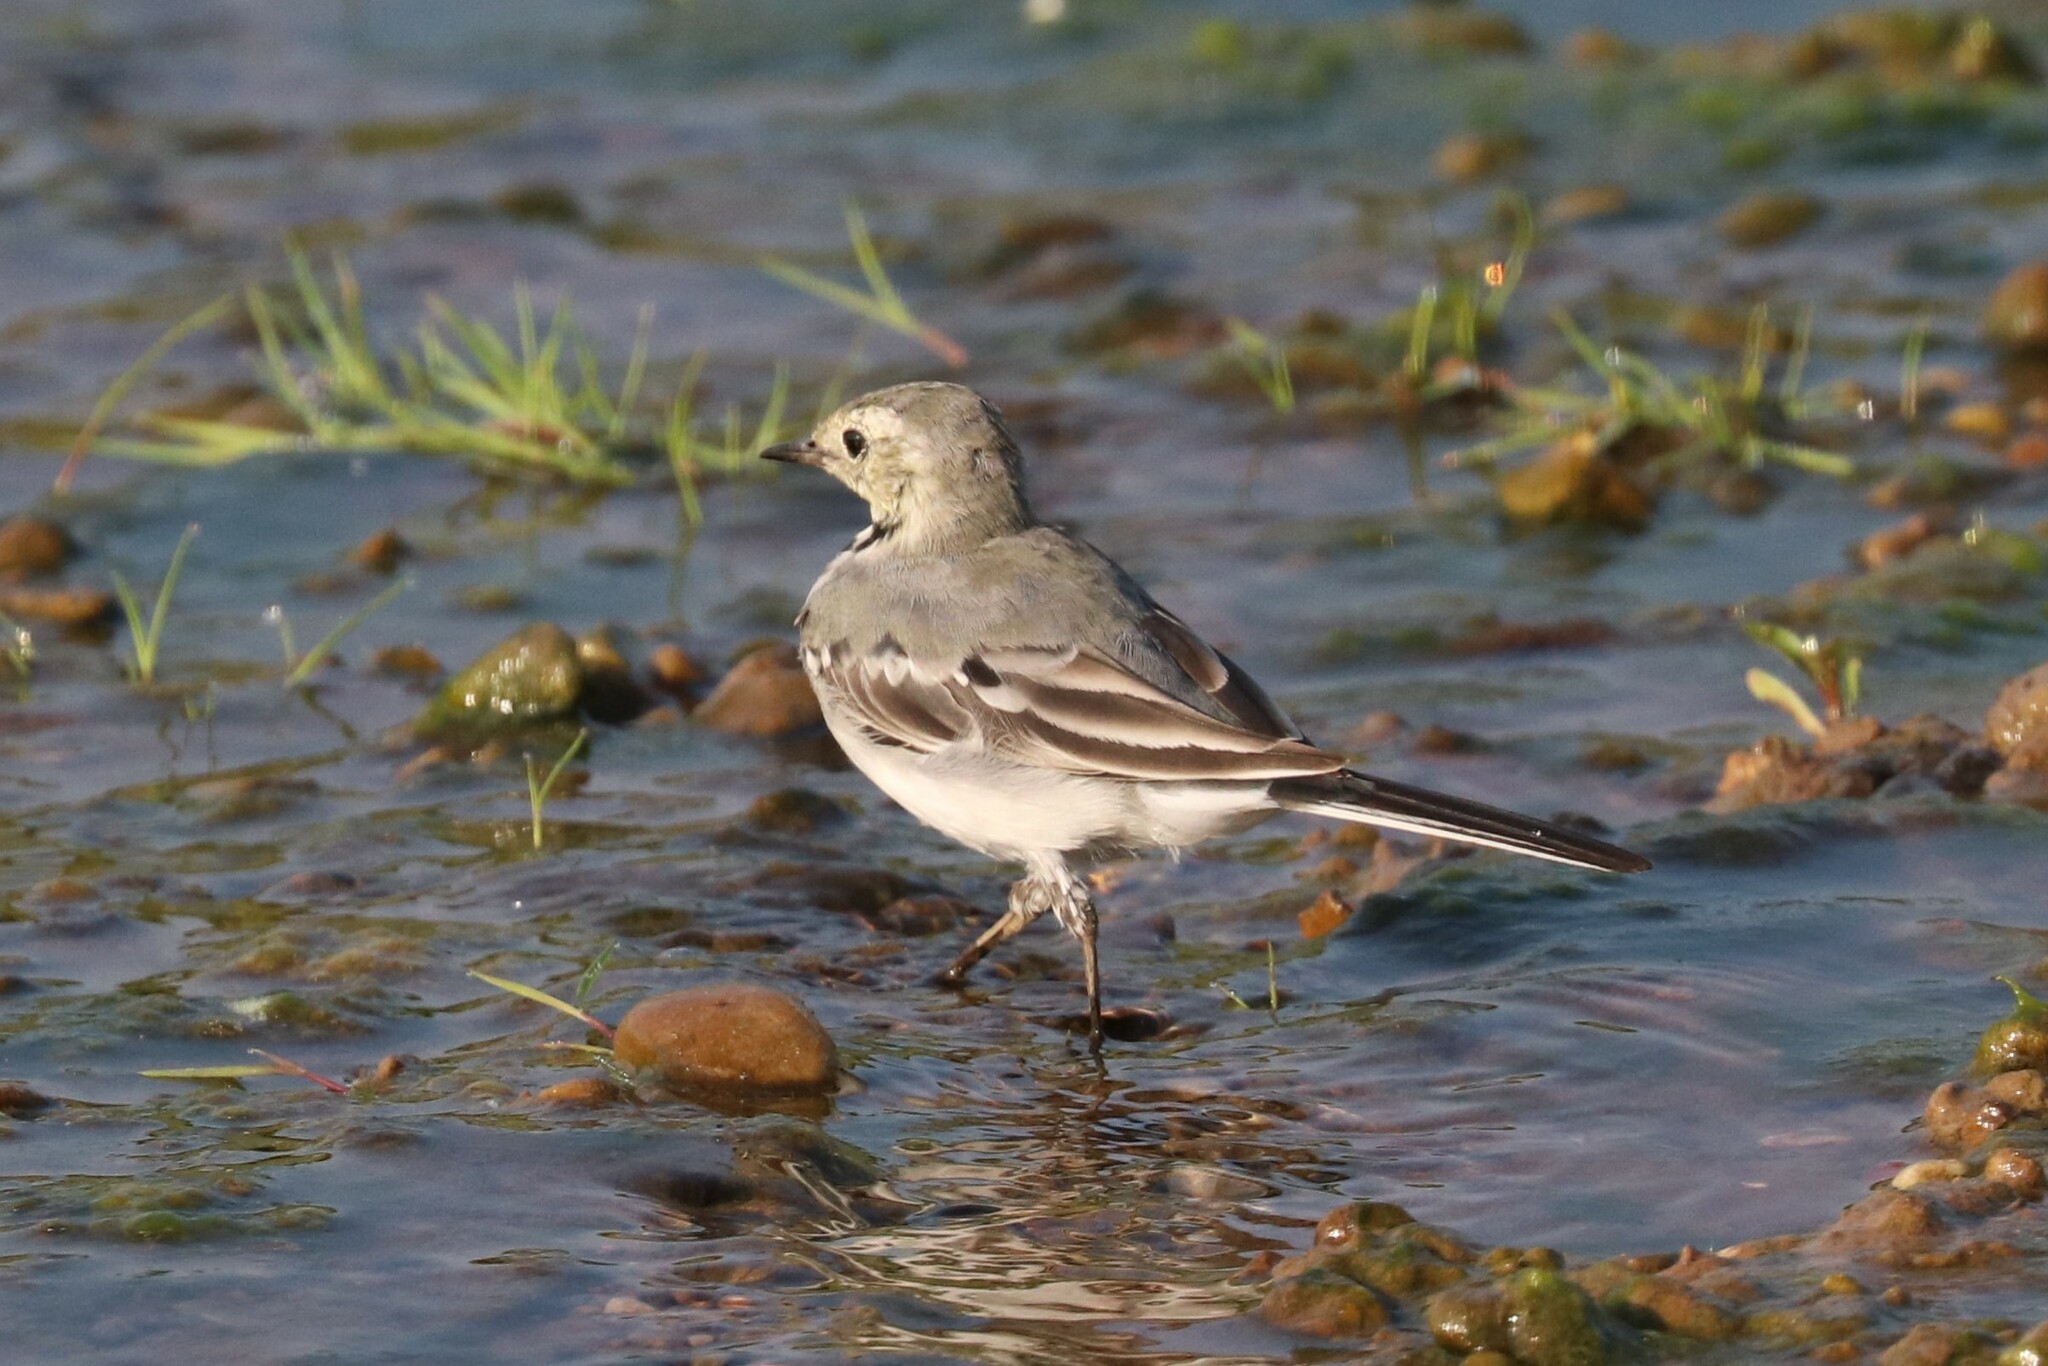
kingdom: Animalia
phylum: Chordata
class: Aves
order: Passeriformes
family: Motacillidae
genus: Motacilla
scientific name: Motacilla alba
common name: White wagtail
